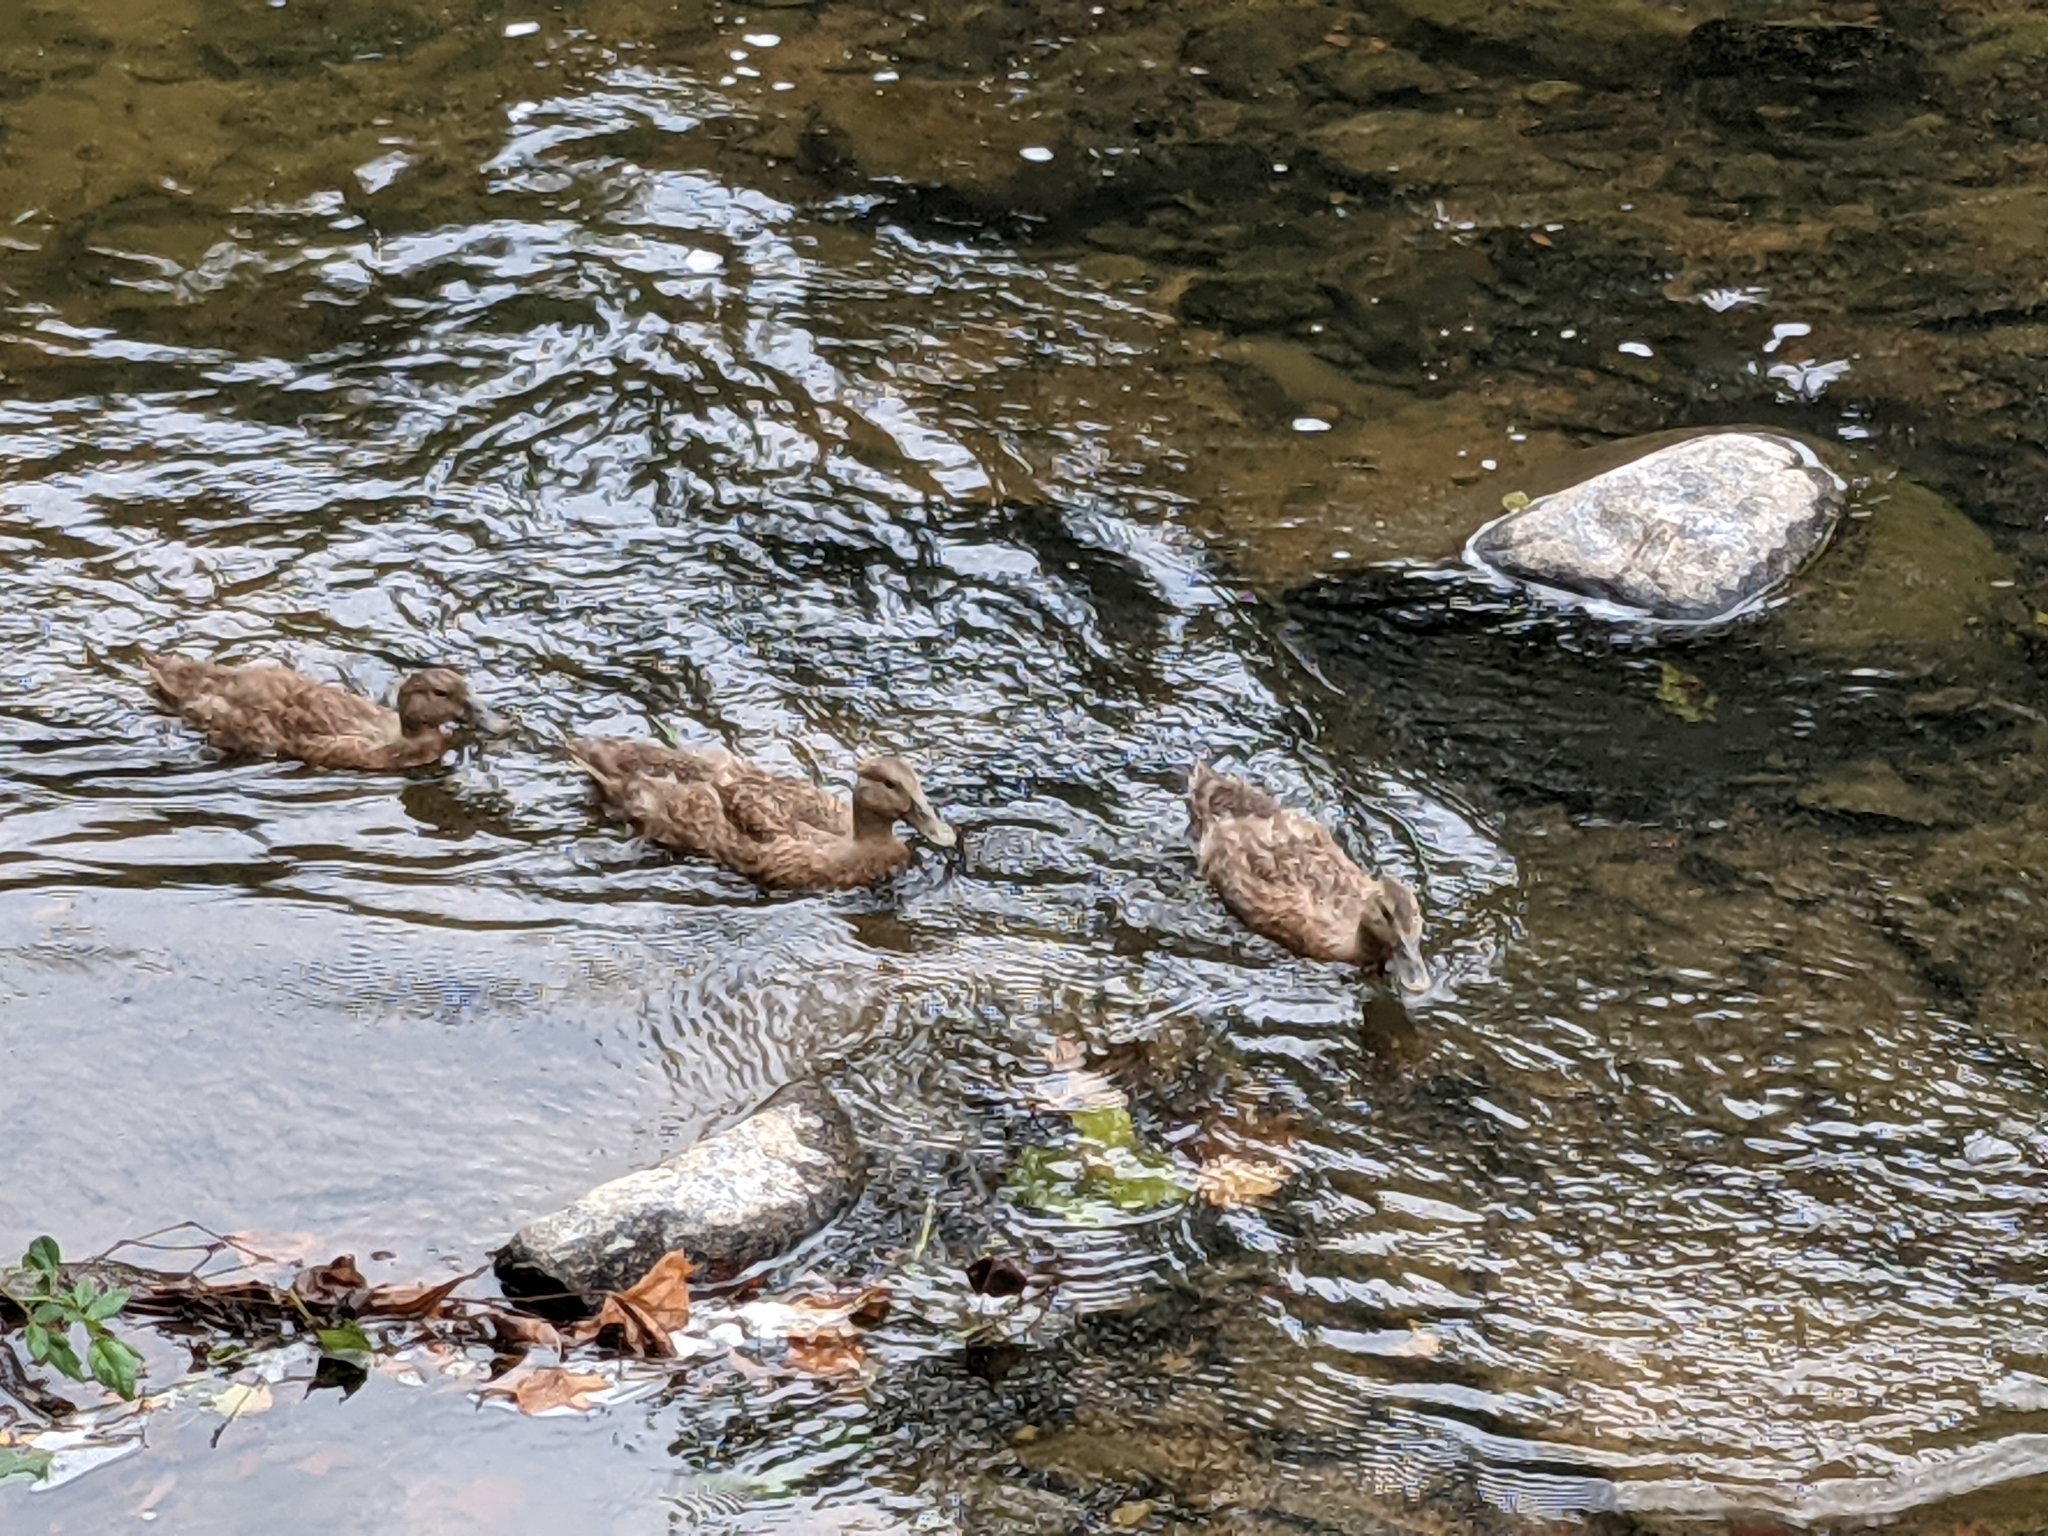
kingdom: Animalia
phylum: Chordata
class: Aves
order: Anseriformes
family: Anatidae
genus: Anas
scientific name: Anas platyrhynchos
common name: Mallard
